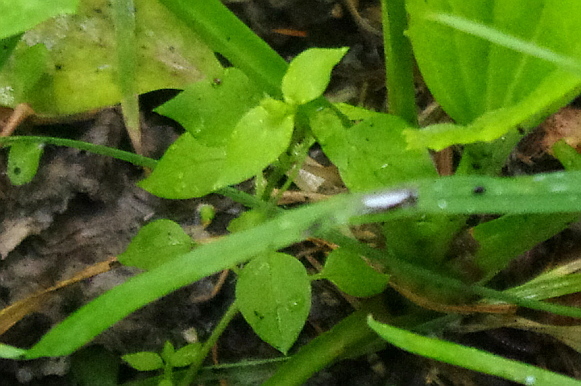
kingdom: Plantae
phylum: Tracheophyta
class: Magnoliopsida
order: Caryophyllales
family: Caryophyllaceae
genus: Stellaria
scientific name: Stellaria media
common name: Common chickweed
